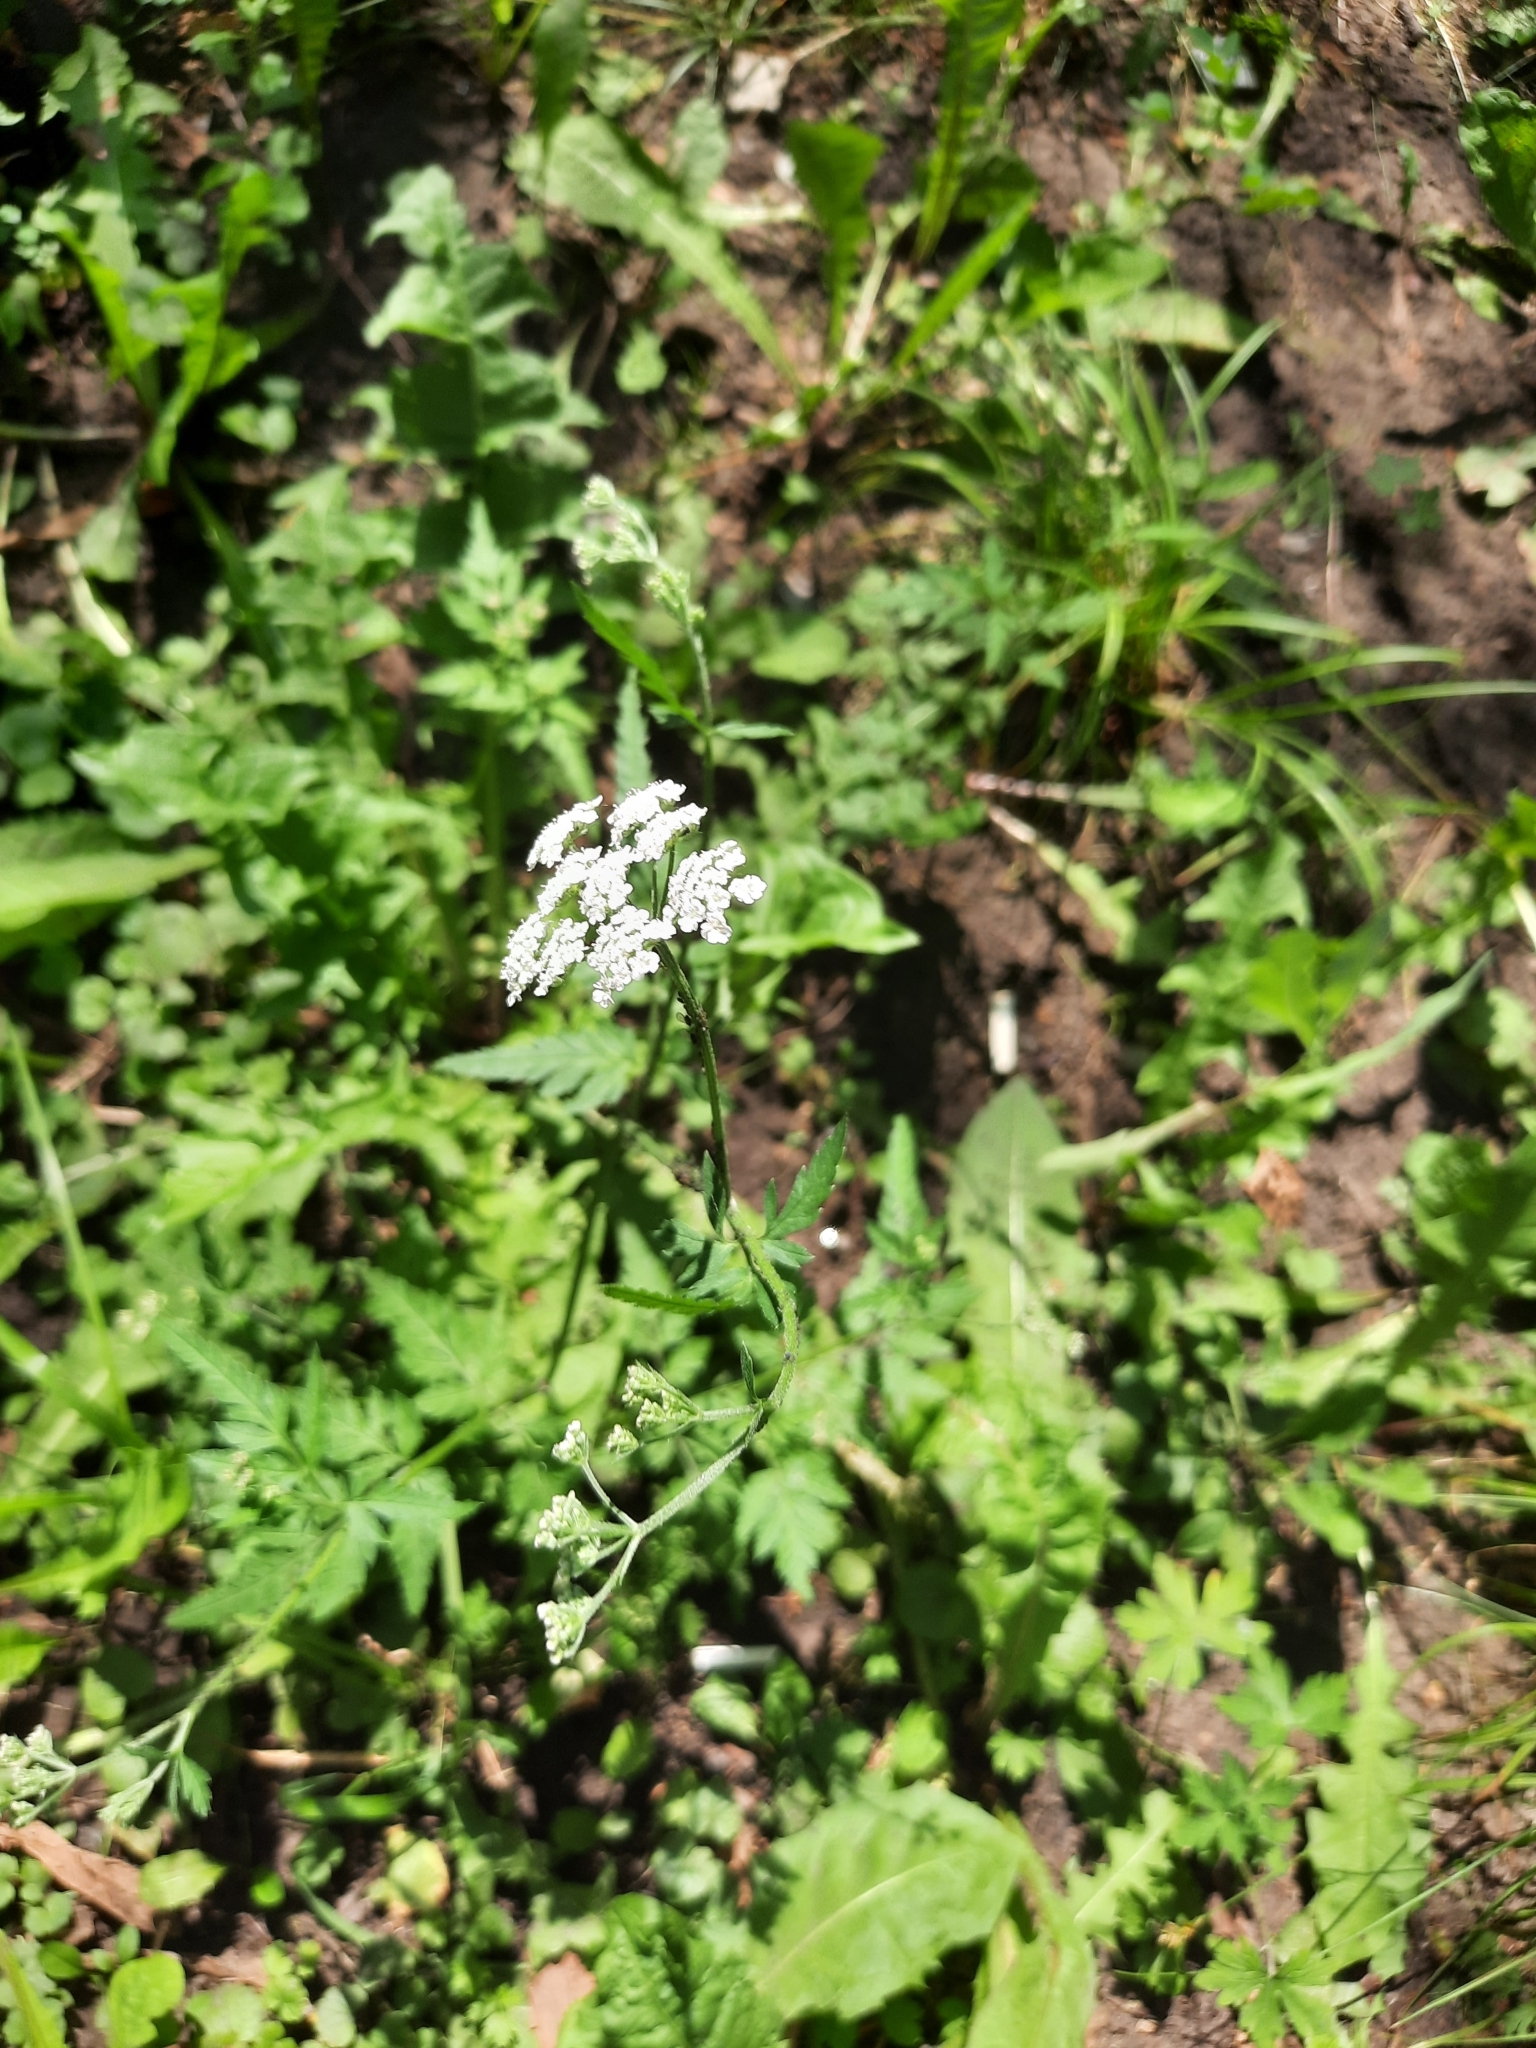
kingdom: Plantae
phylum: Tracheophyta
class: Magnoliopsida
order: Apiales
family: Apiaceae
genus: Torilis
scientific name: Torilis japonica
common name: Upright hedge-parsley
